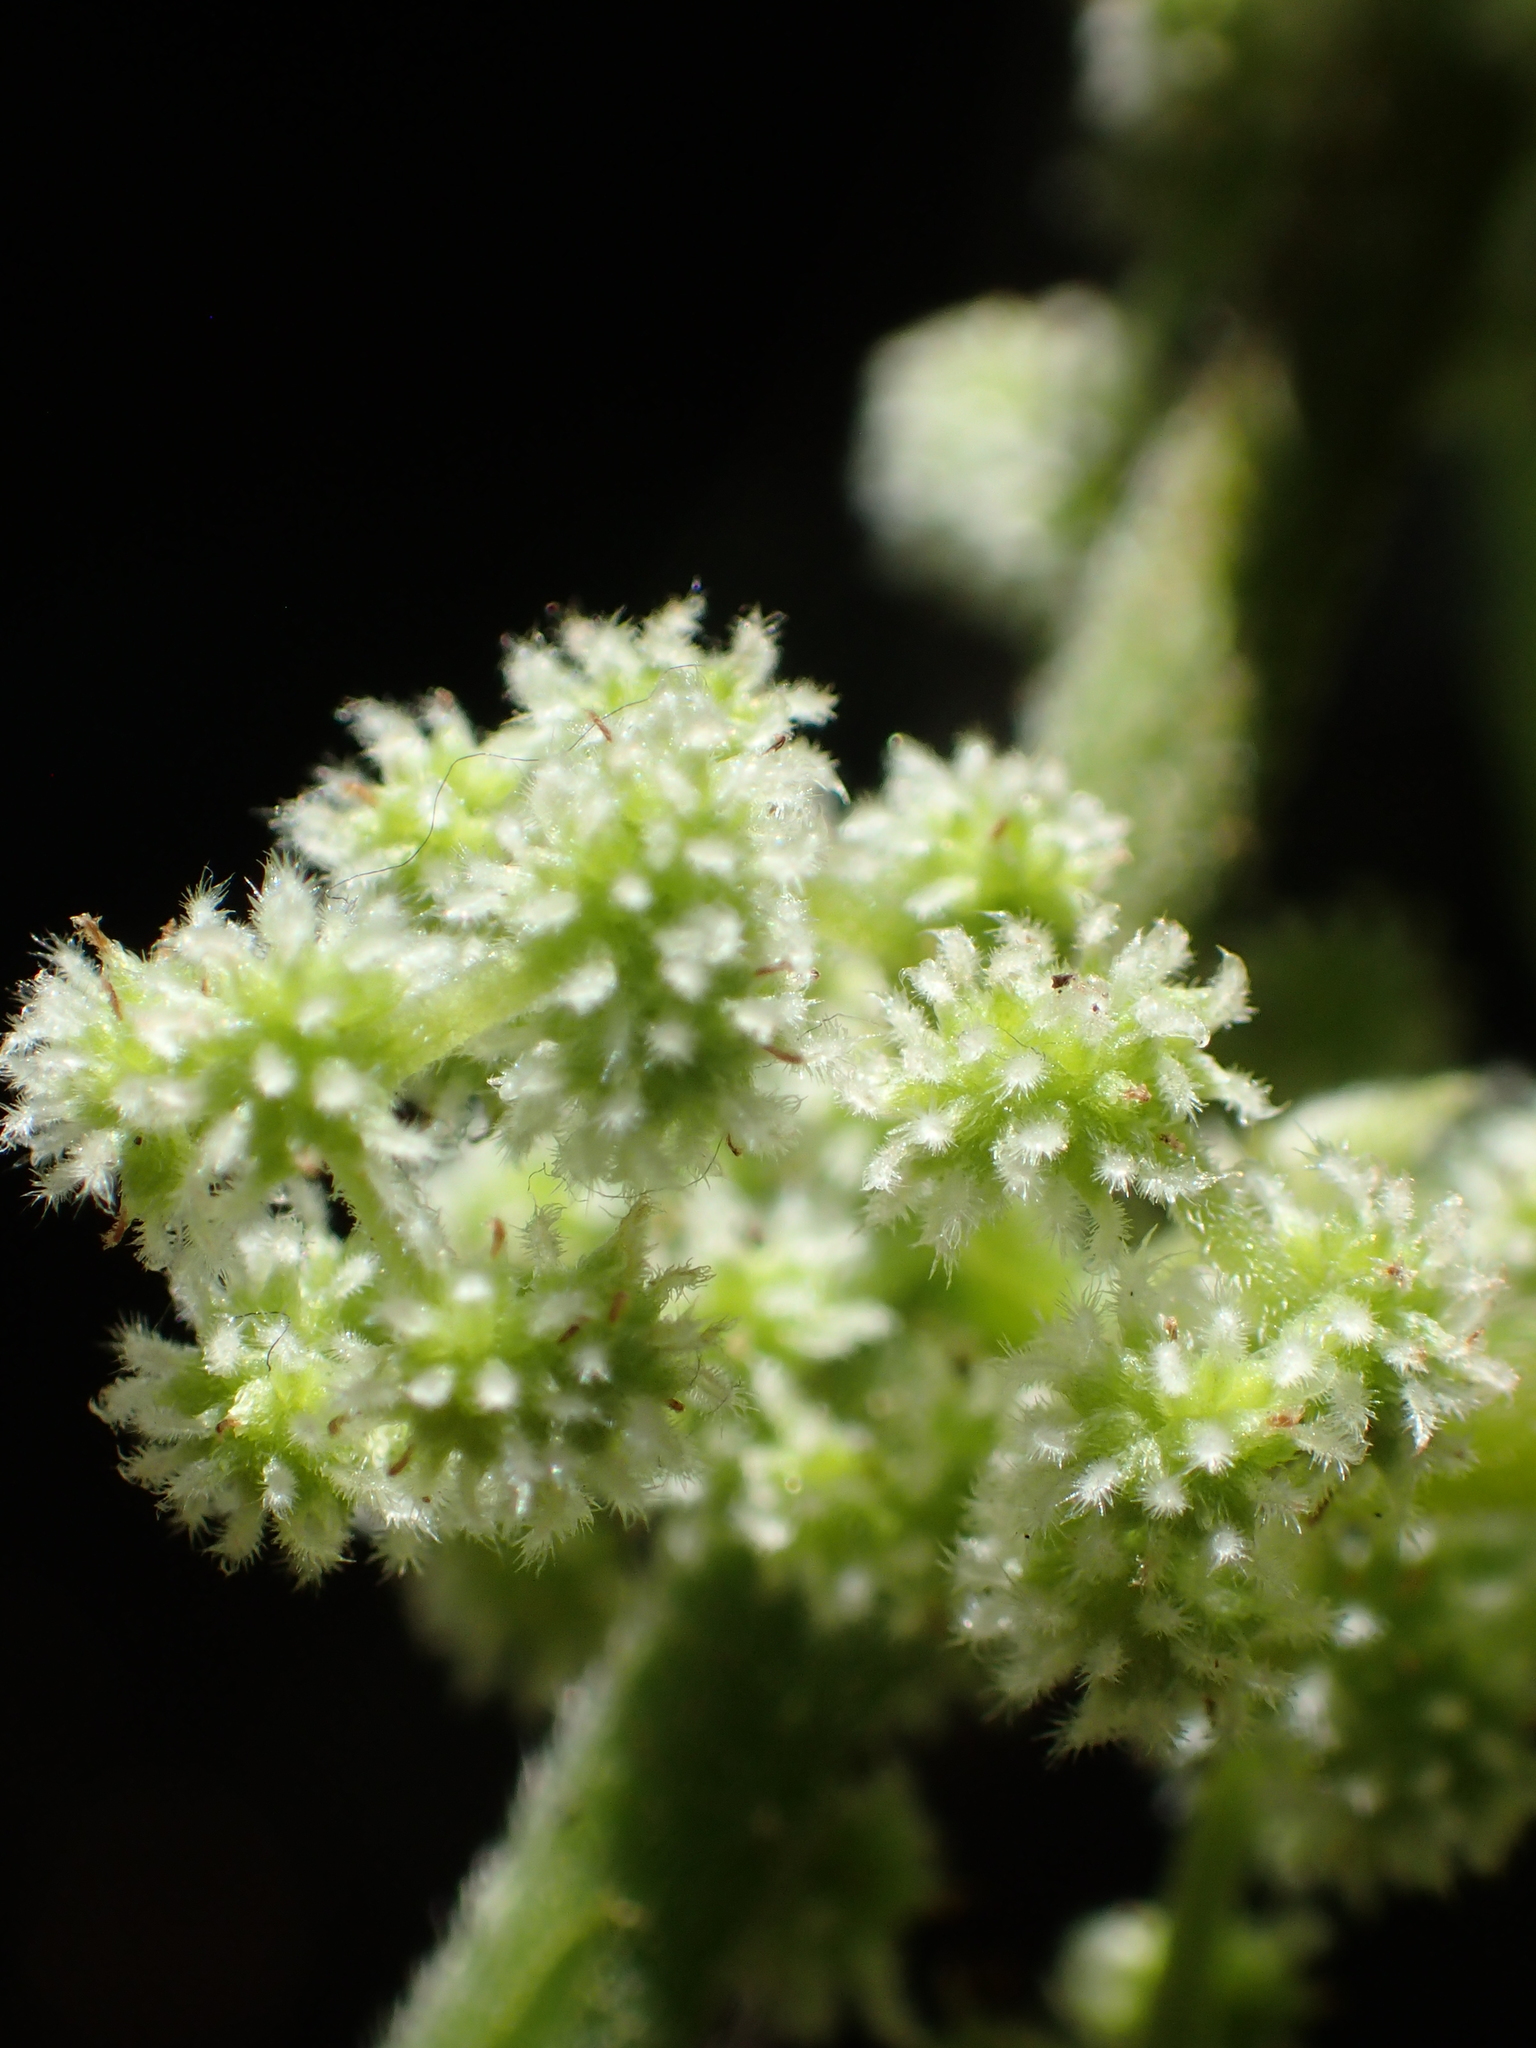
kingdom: Plantae
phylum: Tracheophyta
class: Magnoliopsida
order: Rosales
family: Urticaceae
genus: Boehmeria
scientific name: Boehmeria nivea
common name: Ramie chinese grass
